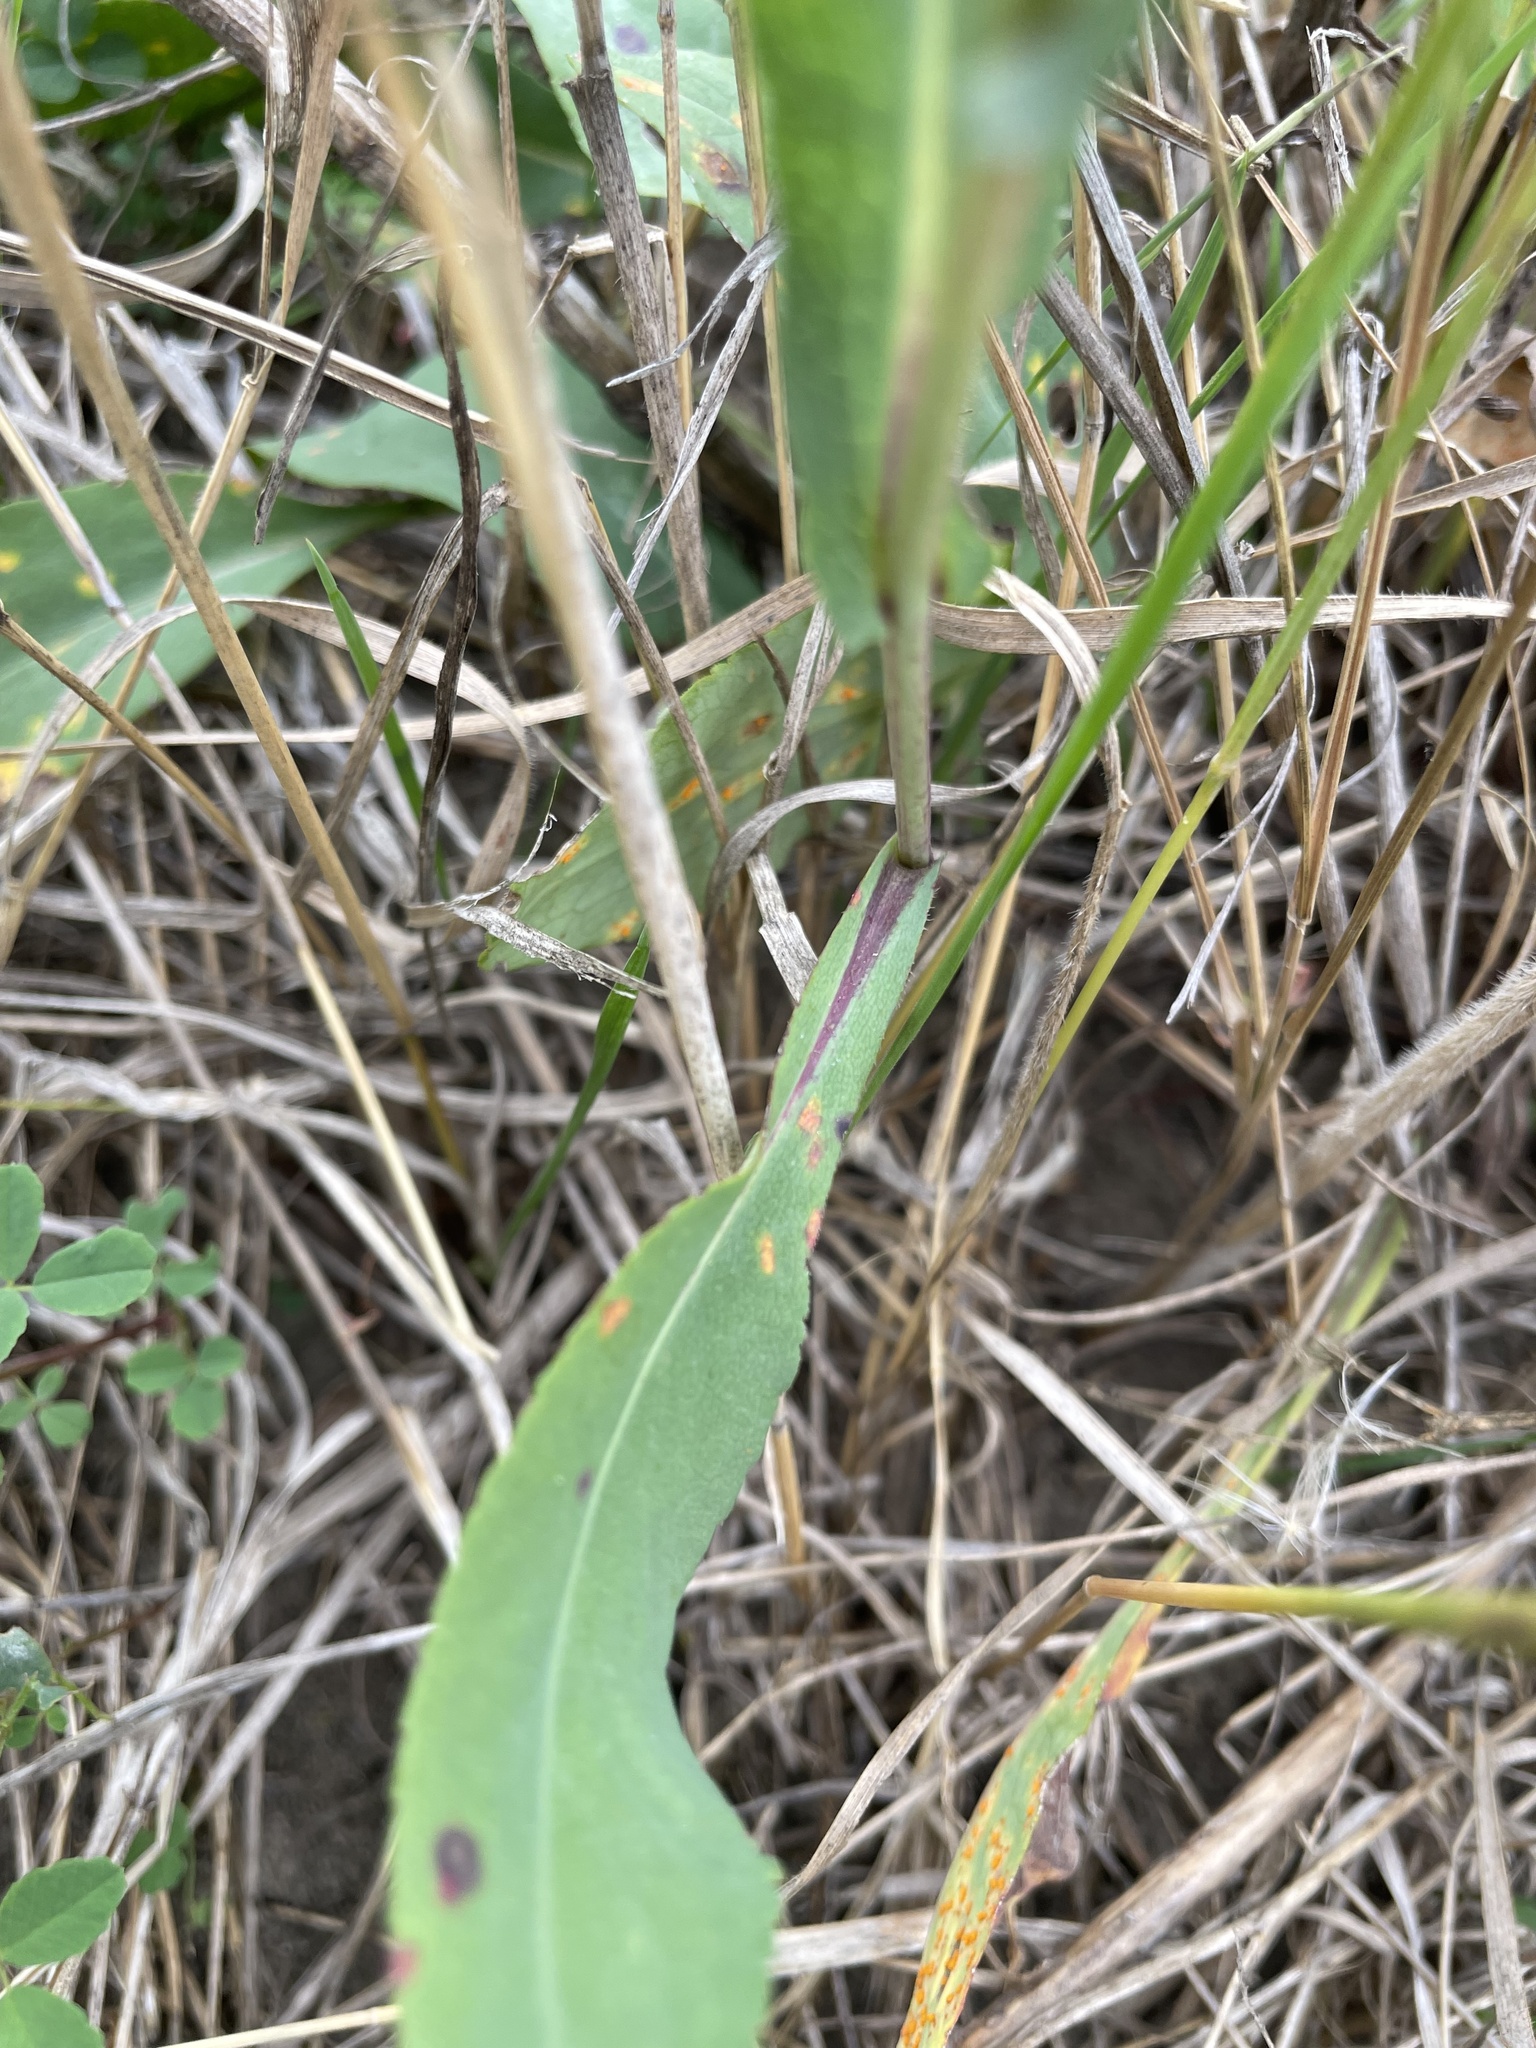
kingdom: Plantae
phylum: Tracheophyta
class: Magnoliopsida
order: Asterales
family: Asteraceae
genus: Symphyotrichum
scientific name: Symphyotrichum laeve
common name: Glaucous aster
